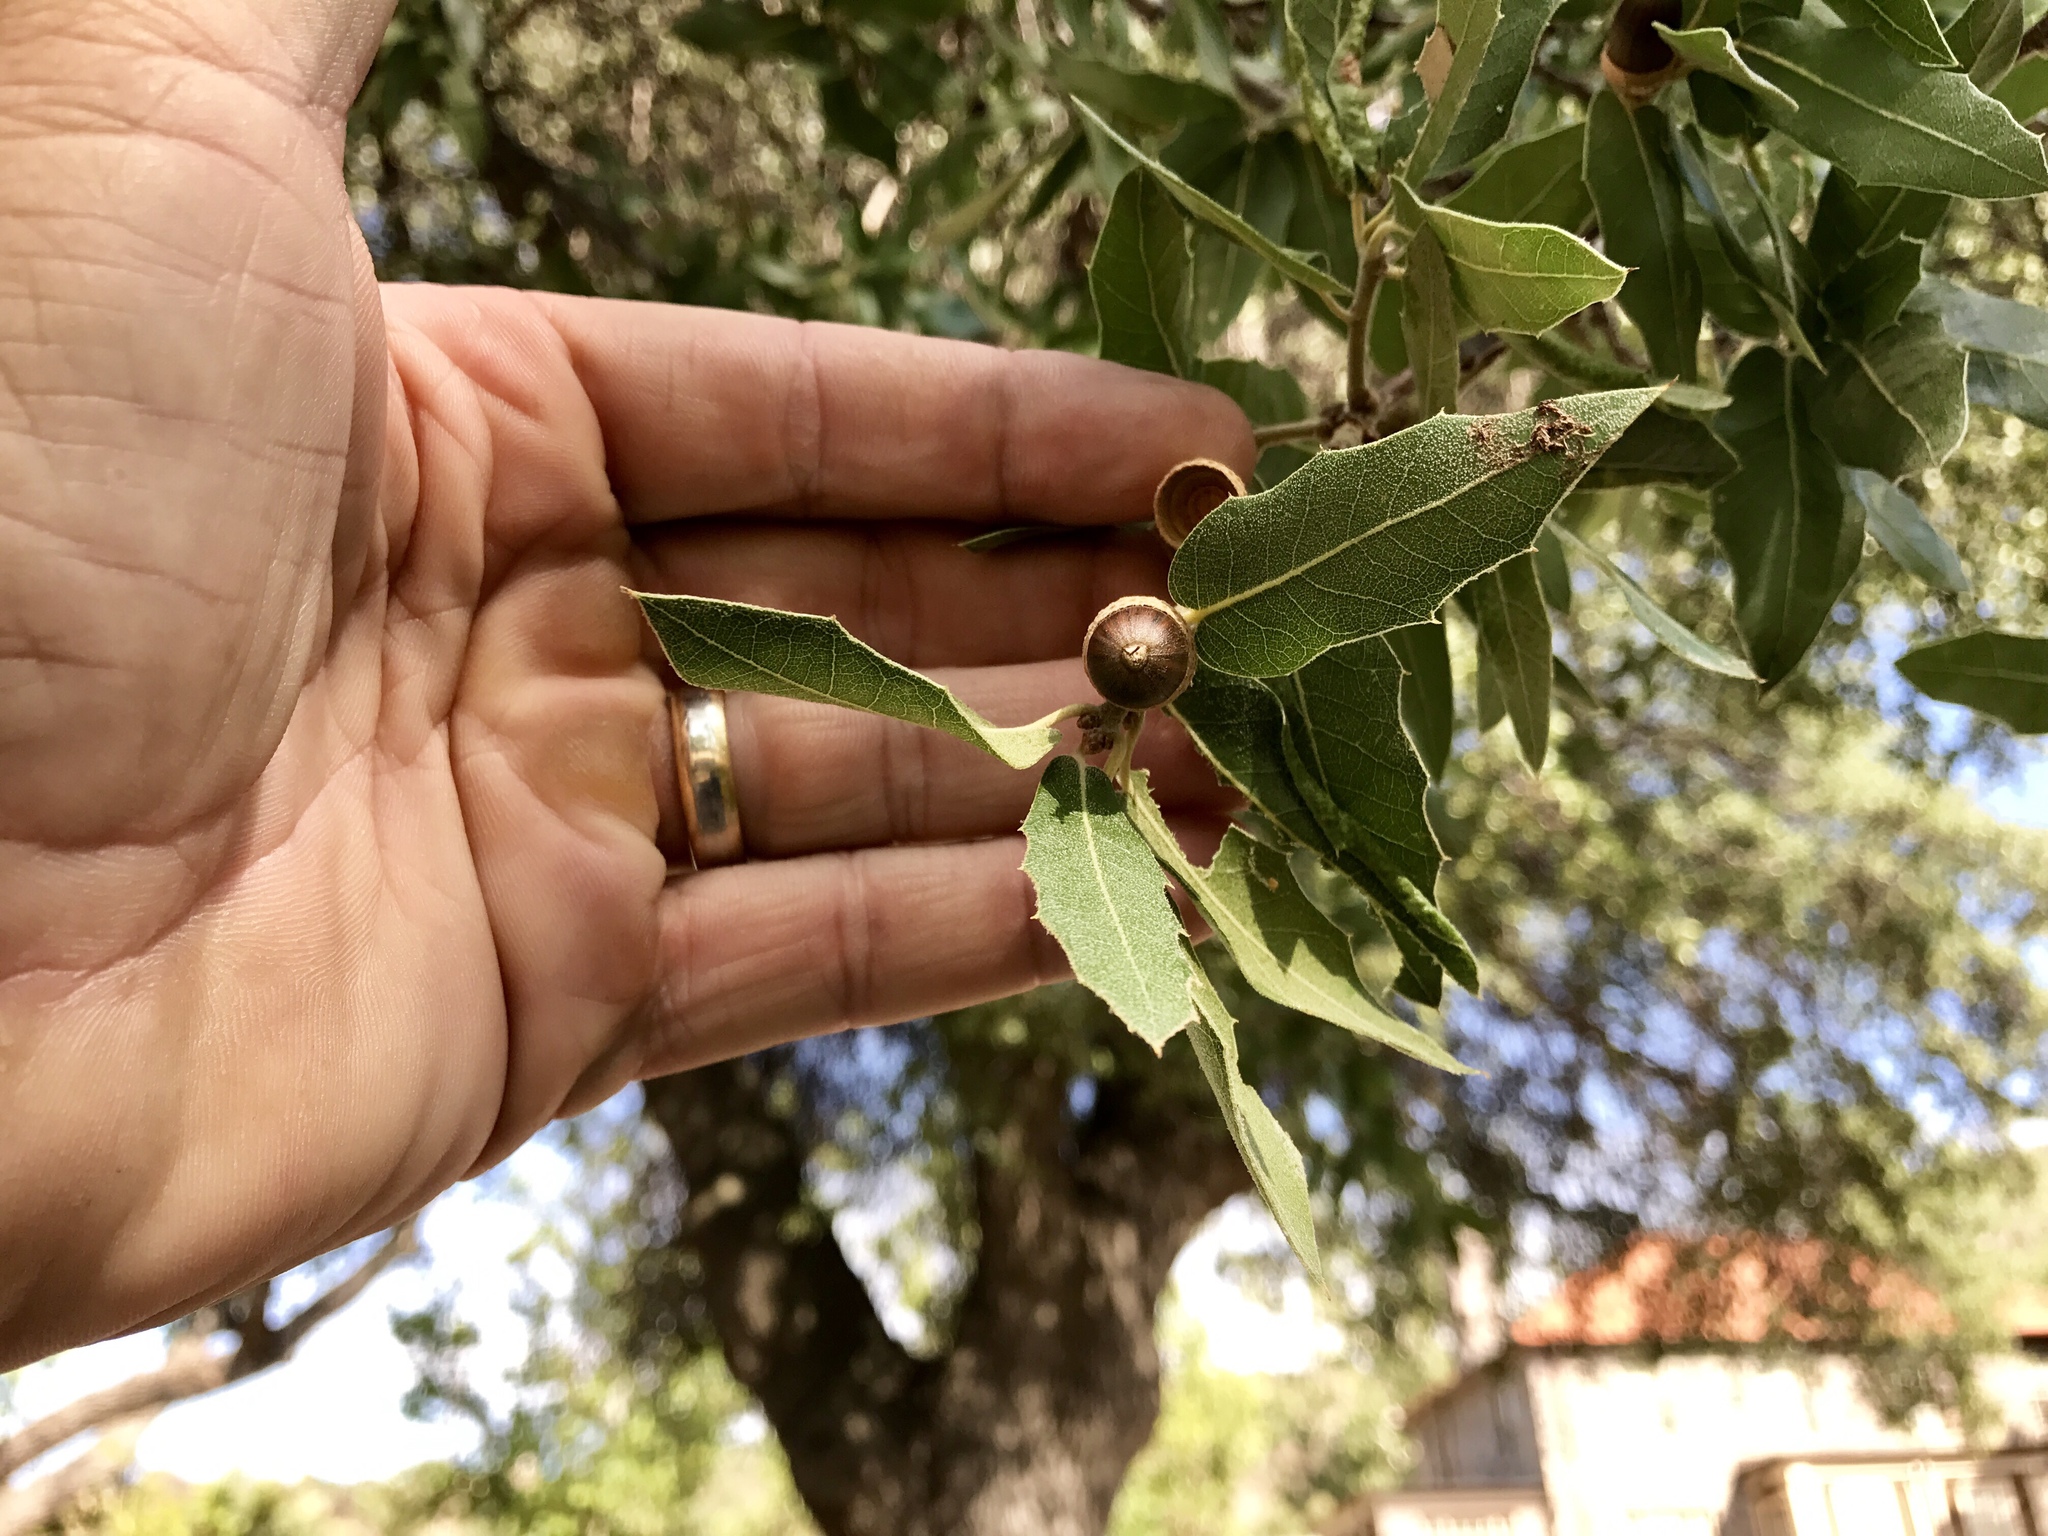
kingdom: Plantae
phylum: Tracheophyta
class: Magnoliopsida
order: Fagales
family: Fagaceae
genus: Quercus
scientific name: Quercus emoryi
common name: Emory oak
